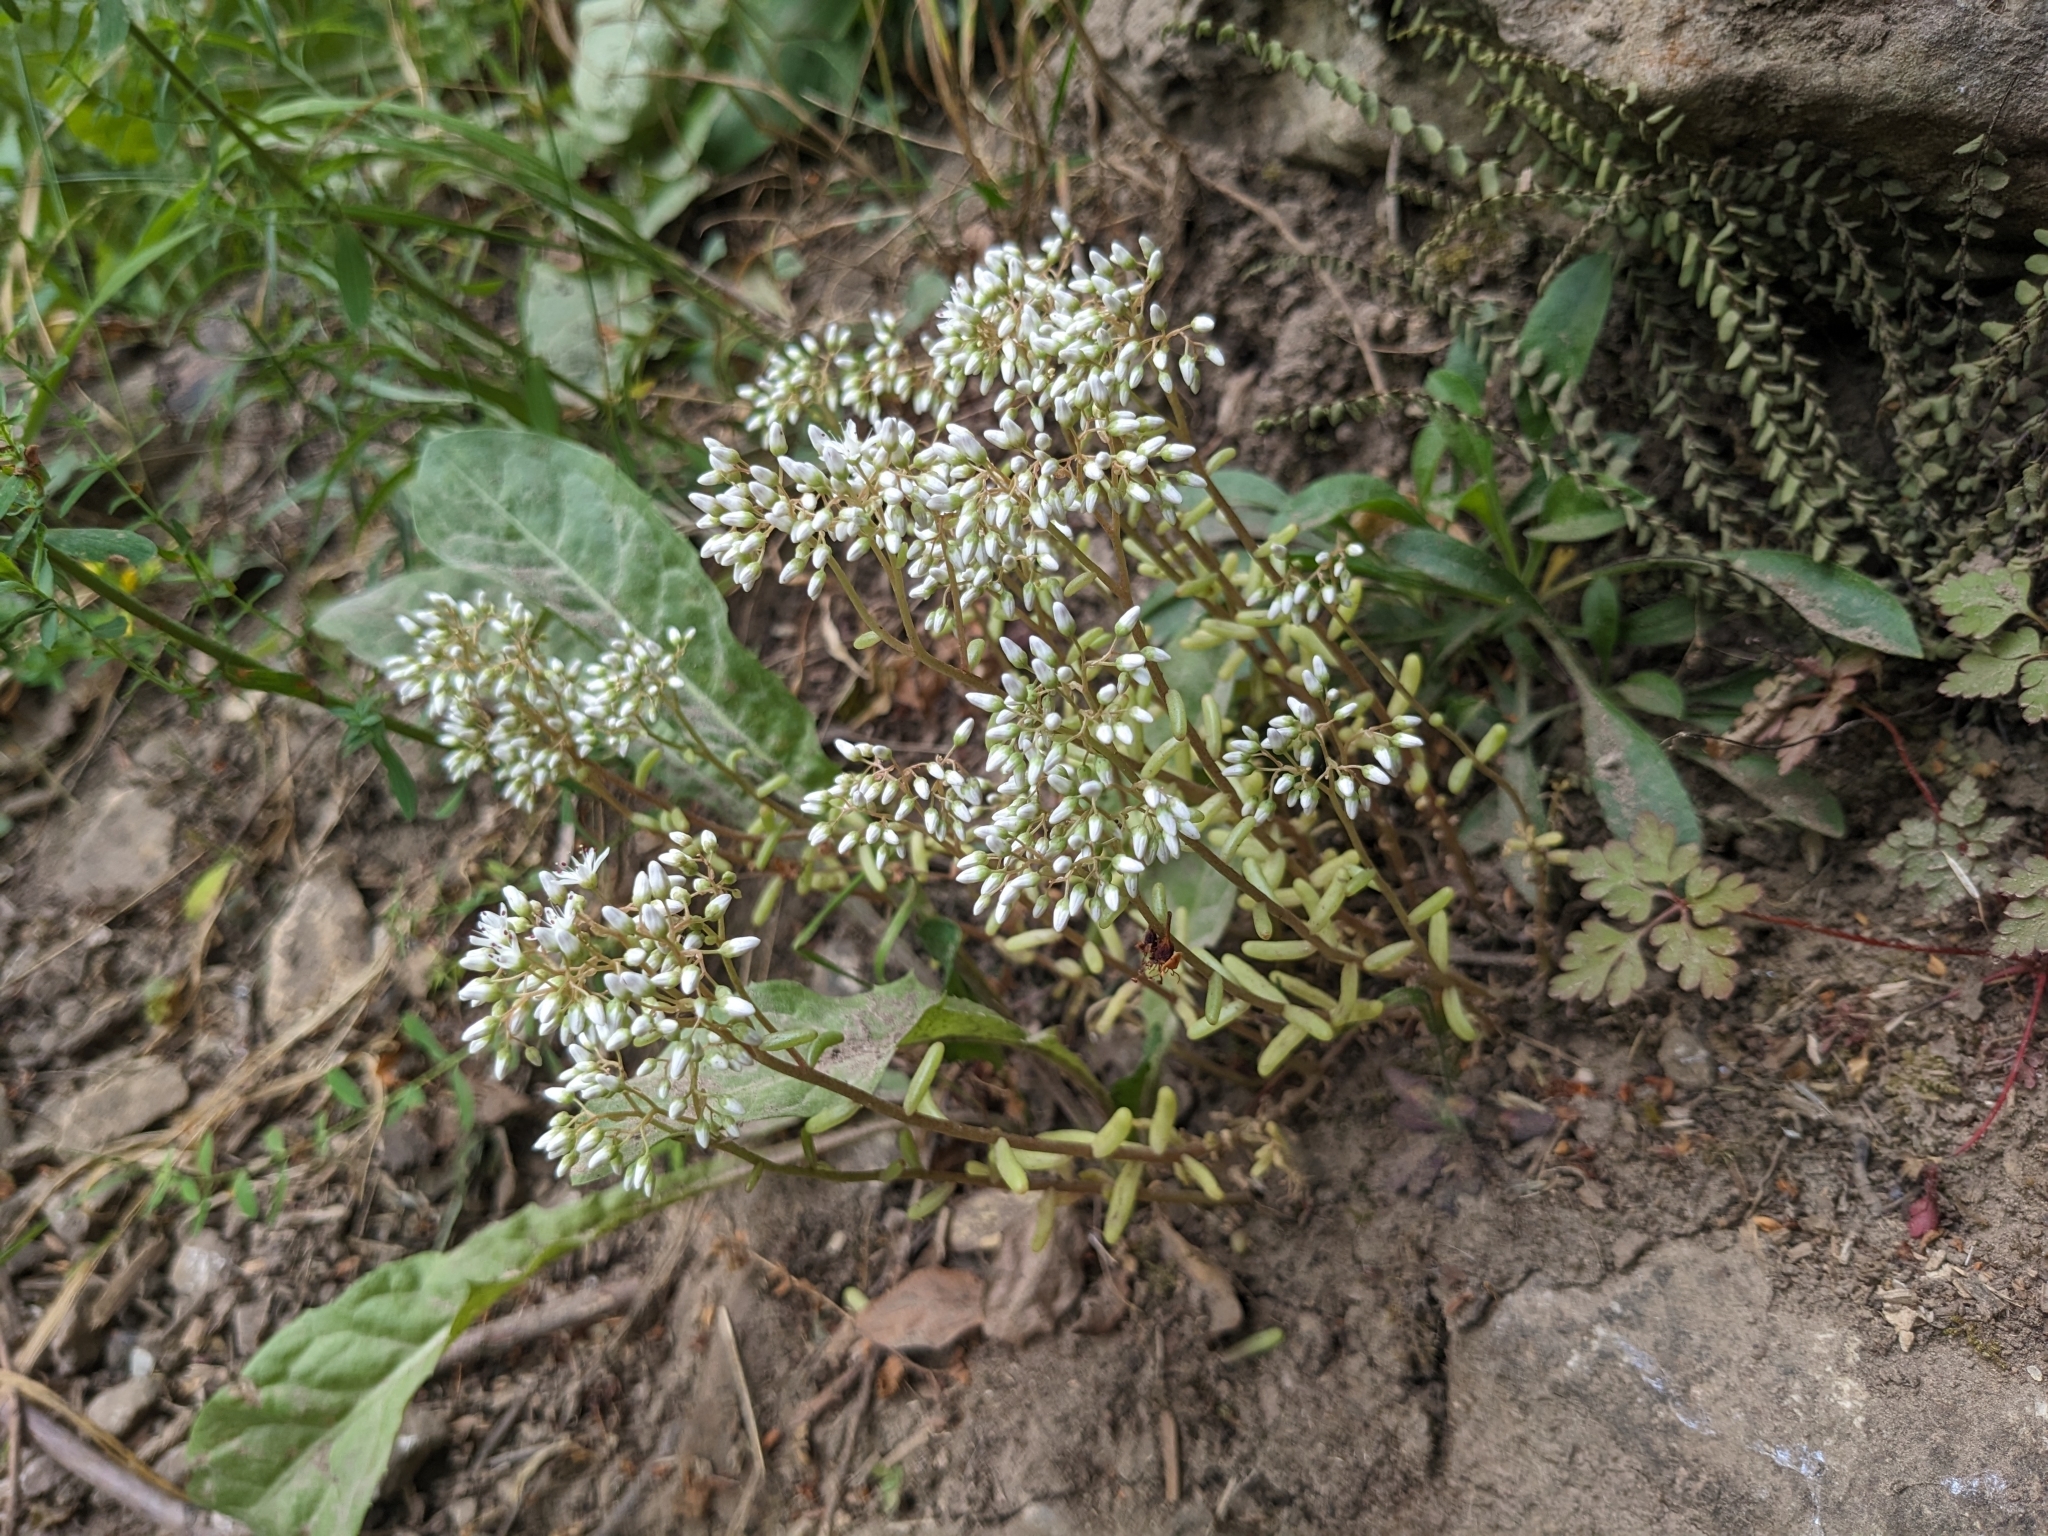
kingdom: Plantae
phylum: Tracheophyta
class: Magnoliopsida
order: Saxifragales
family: Crassulaceae
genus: Sedum
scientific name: Sedum album
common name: White stonecrop
